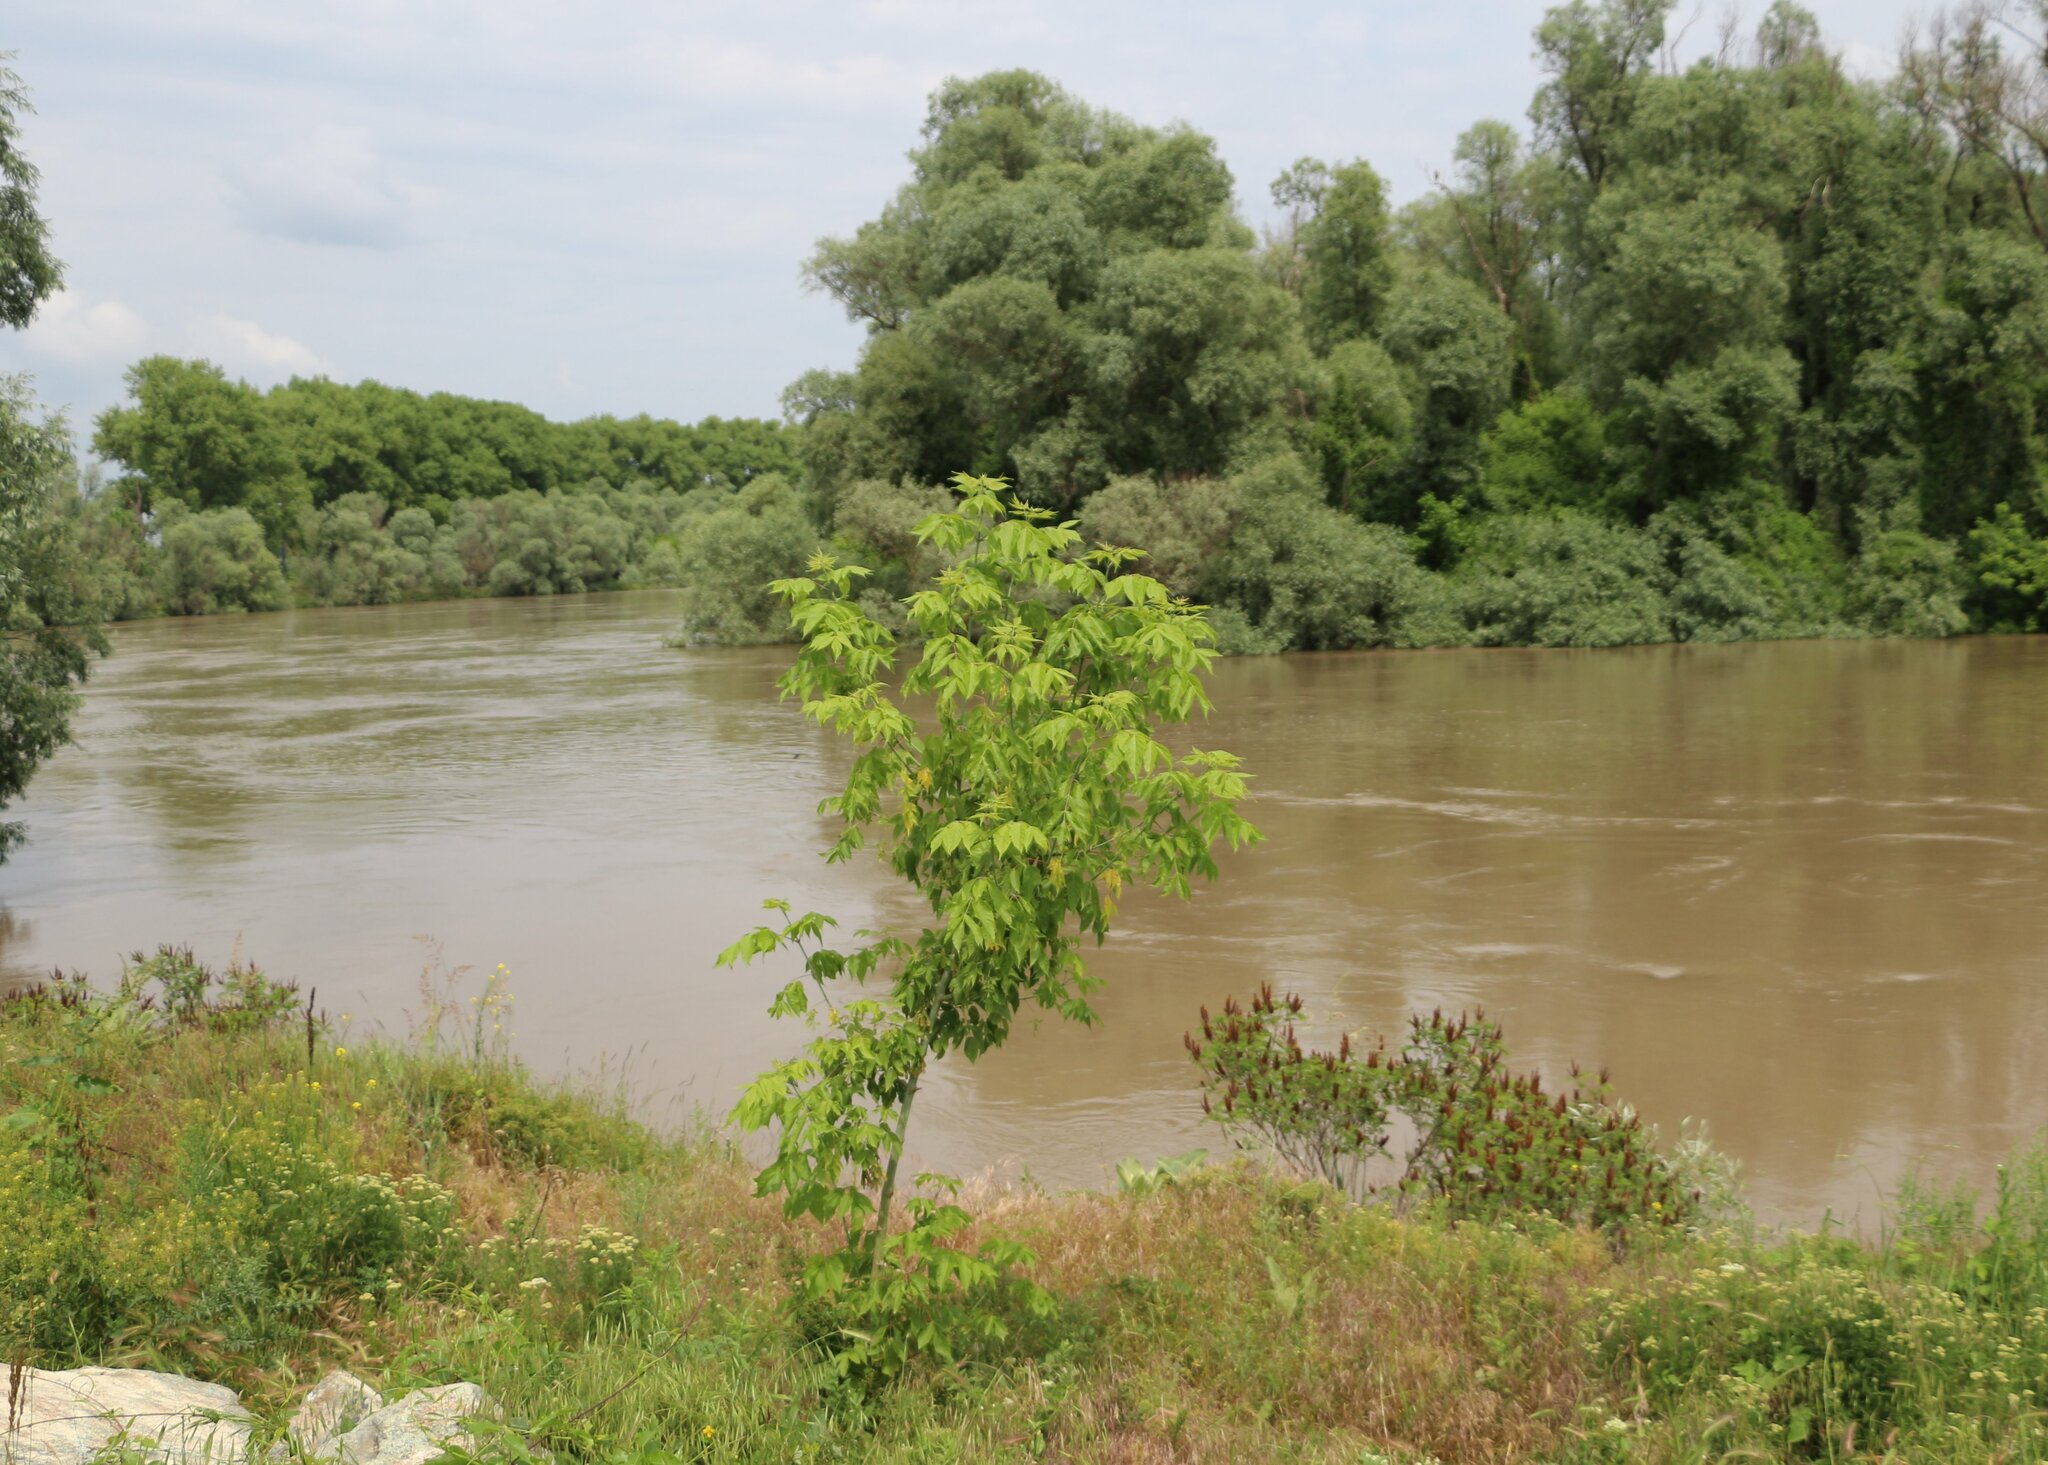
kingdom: Plantae
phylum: Tracheophyta
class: Magnoliopsida
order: Sapindales
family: Sapindaceae
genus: Acer
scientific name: Acer negundo
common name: Ashleaf maple
